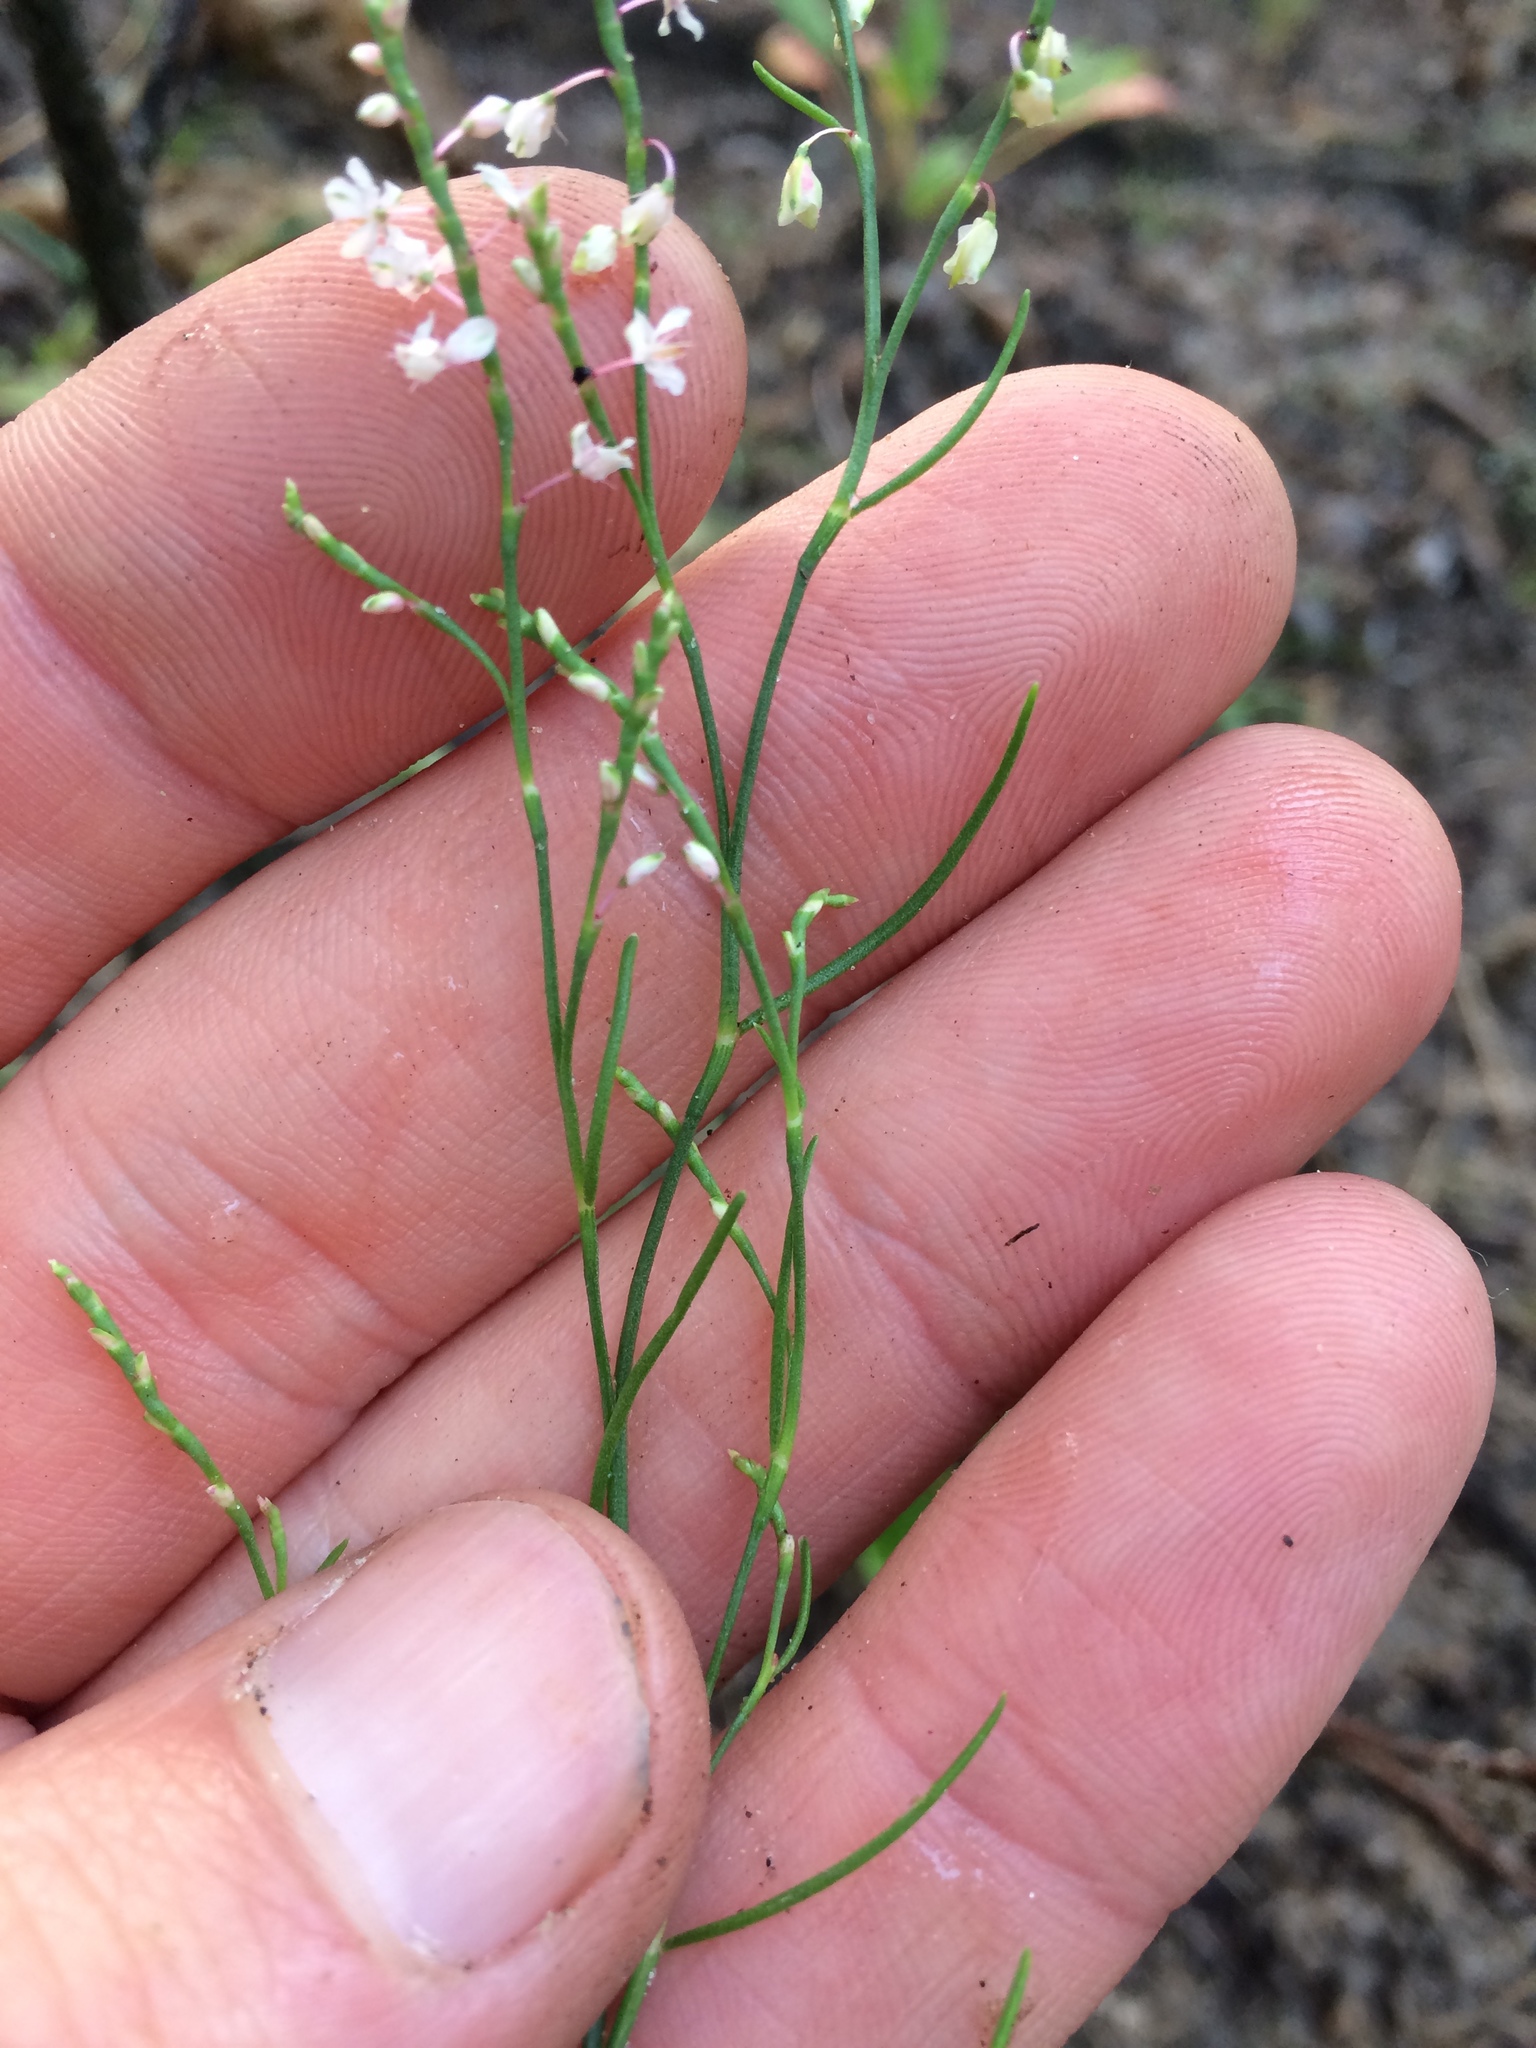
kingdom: Plantae
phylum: Tracheophyta
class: Magnoliopsida
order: Caryophyllales
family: Polygonaceae
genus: Polygonella
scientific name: Polygonella articulata
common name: Coastal jointweed
